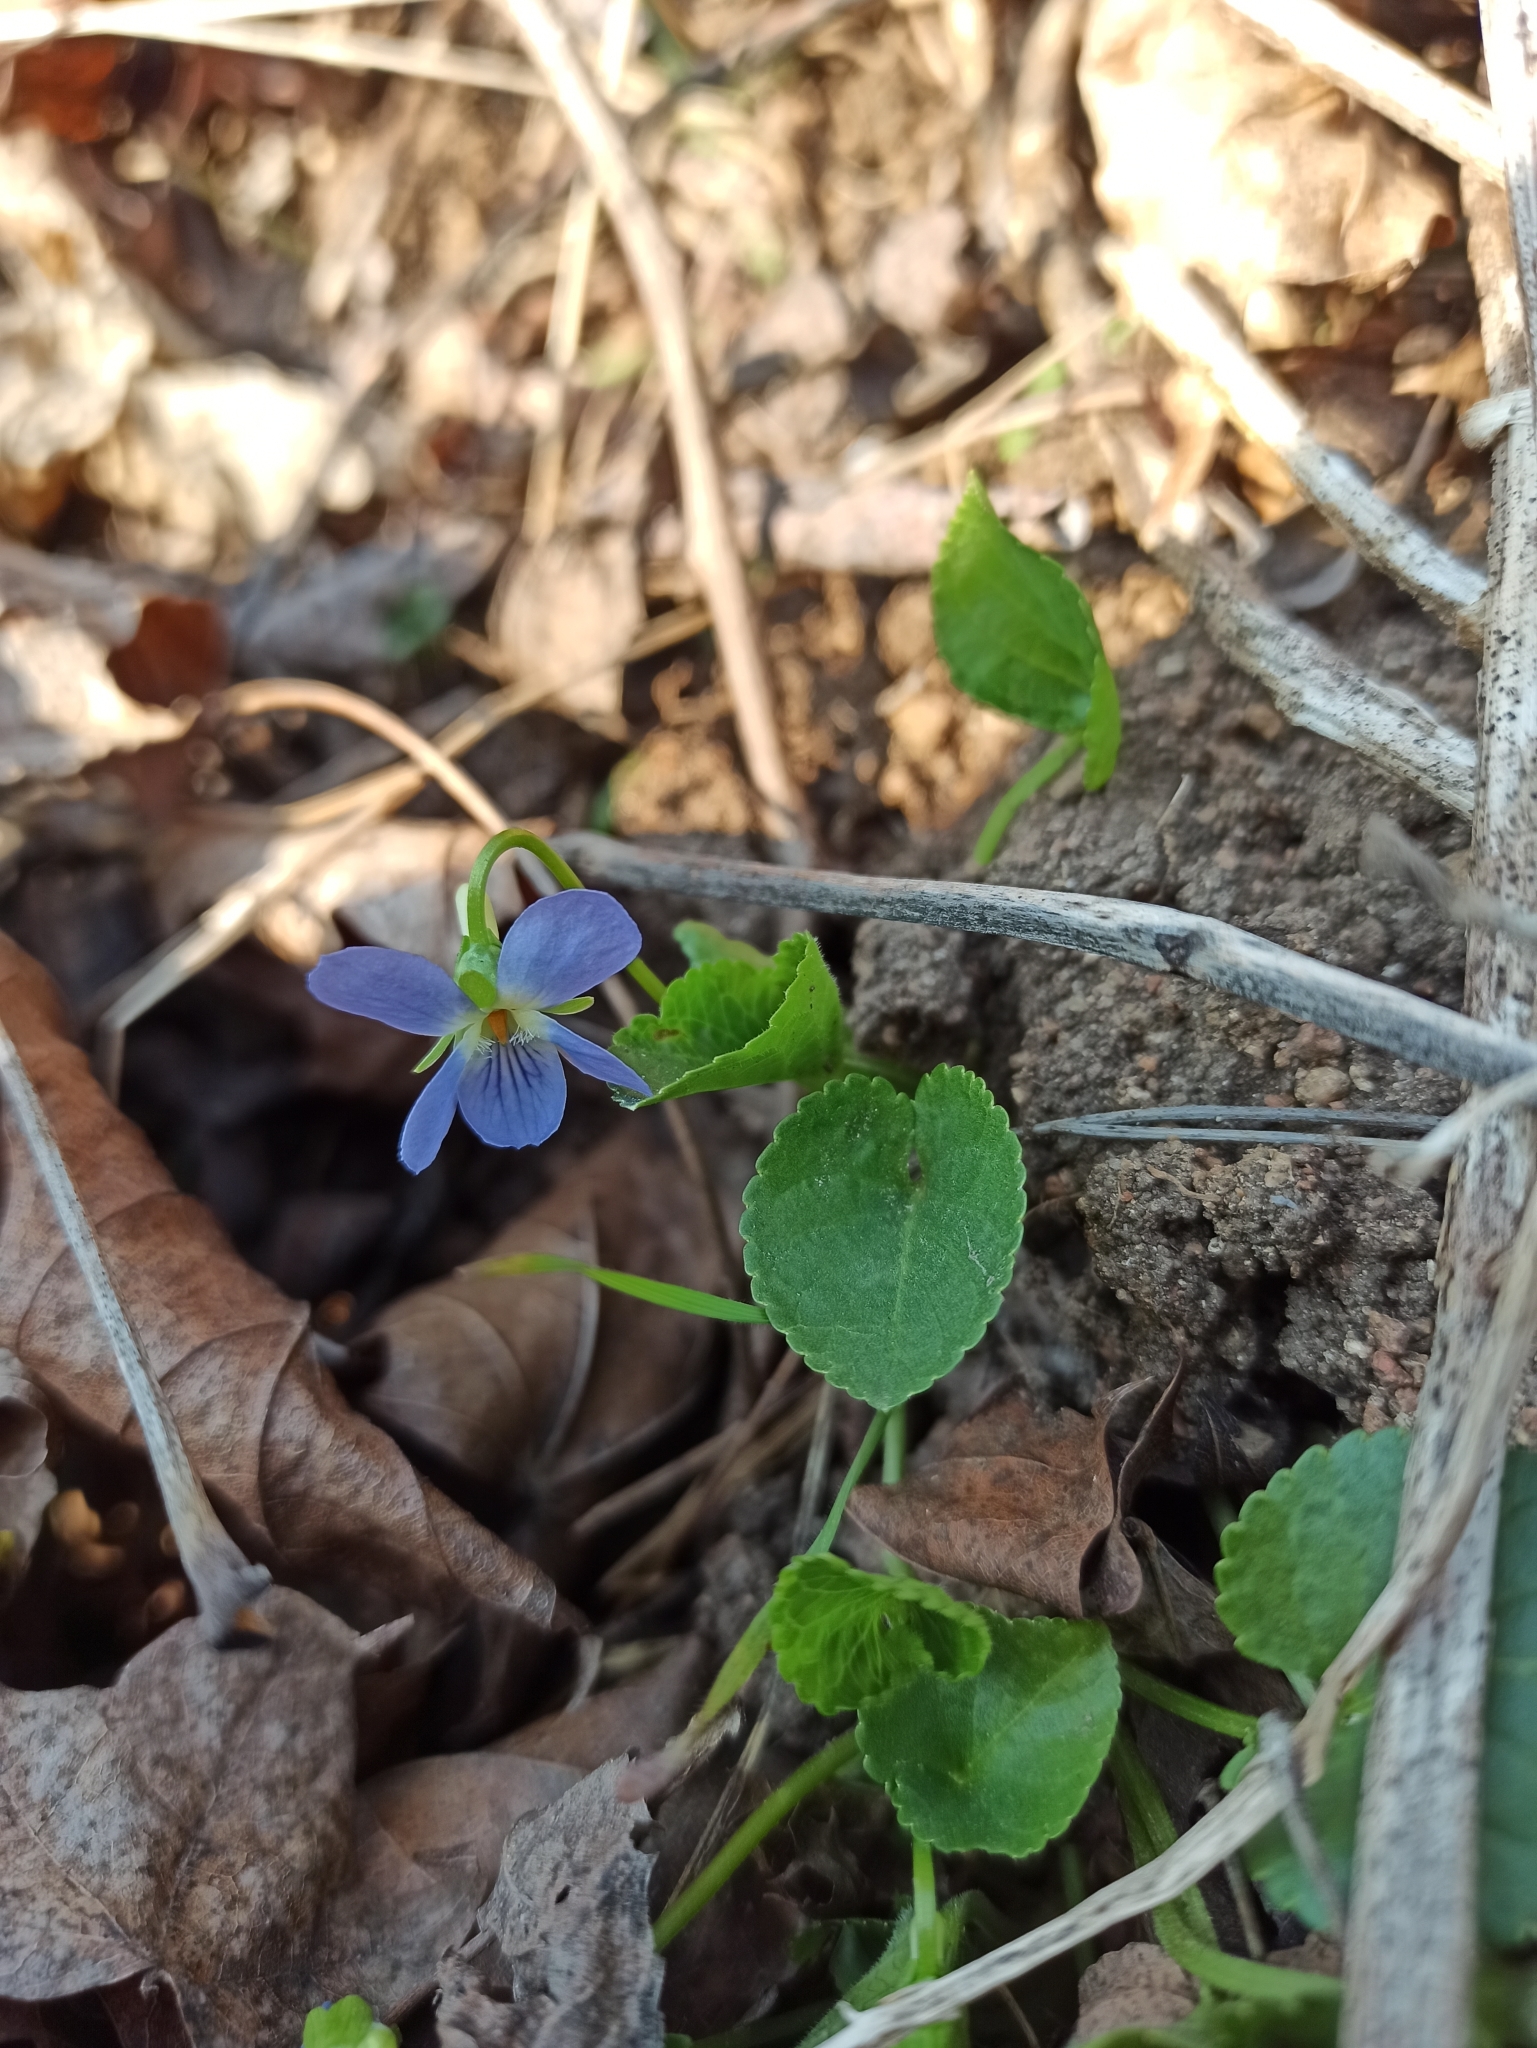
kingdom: Plantae
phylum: Tracheophyta
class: Magnoliopsida
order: Malpighiales
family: Violaceae
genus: Viola
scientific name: Viola riviniana
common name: Common dog-violet
